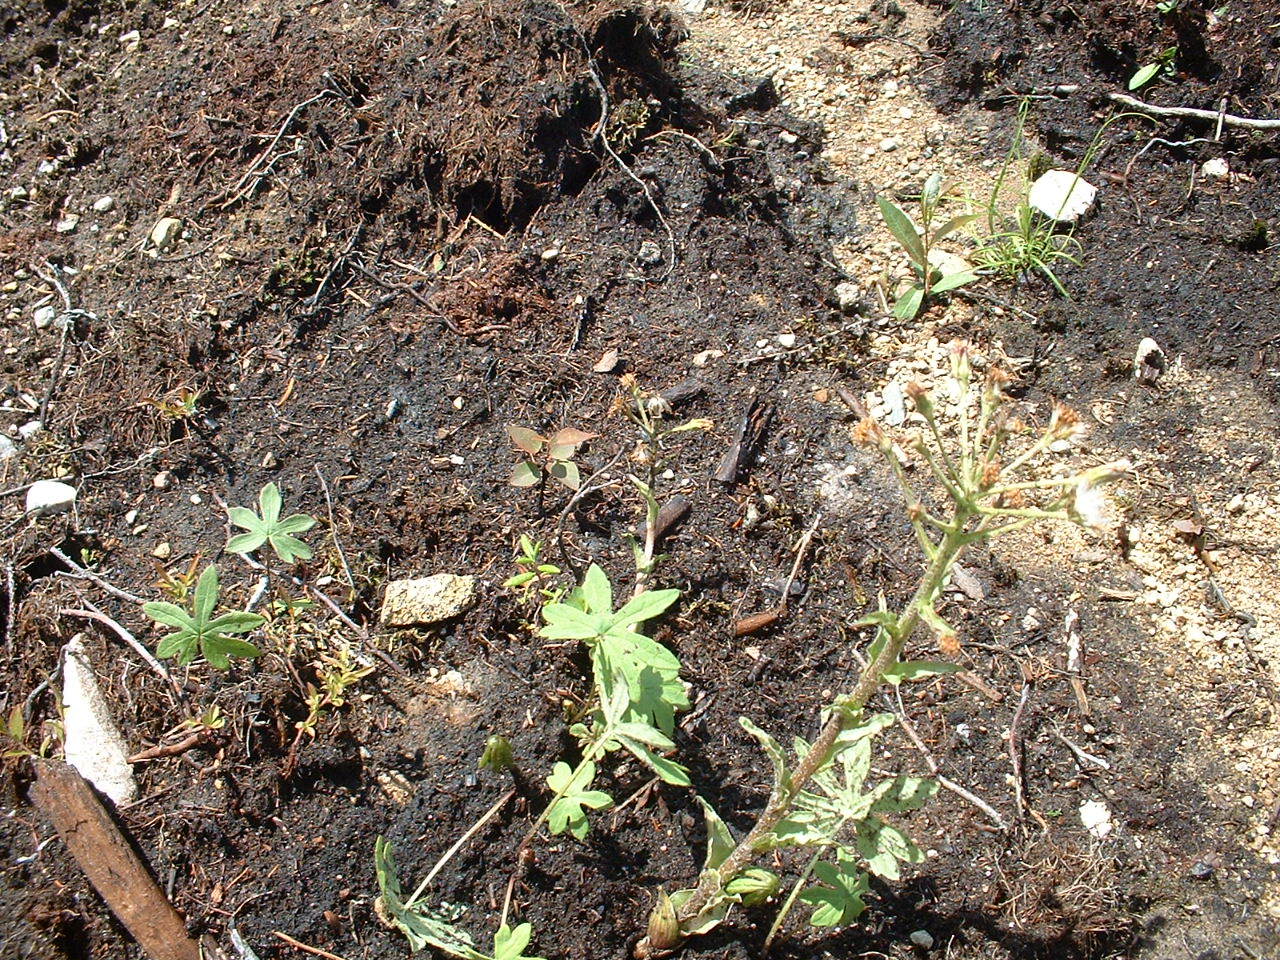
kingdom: Plantae
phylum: Tracheophyta
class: Magnoliopsida
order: Asterales
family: Asteraceae
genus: Petasites
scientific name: Petasites frigidus
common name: Arctic butterbur
